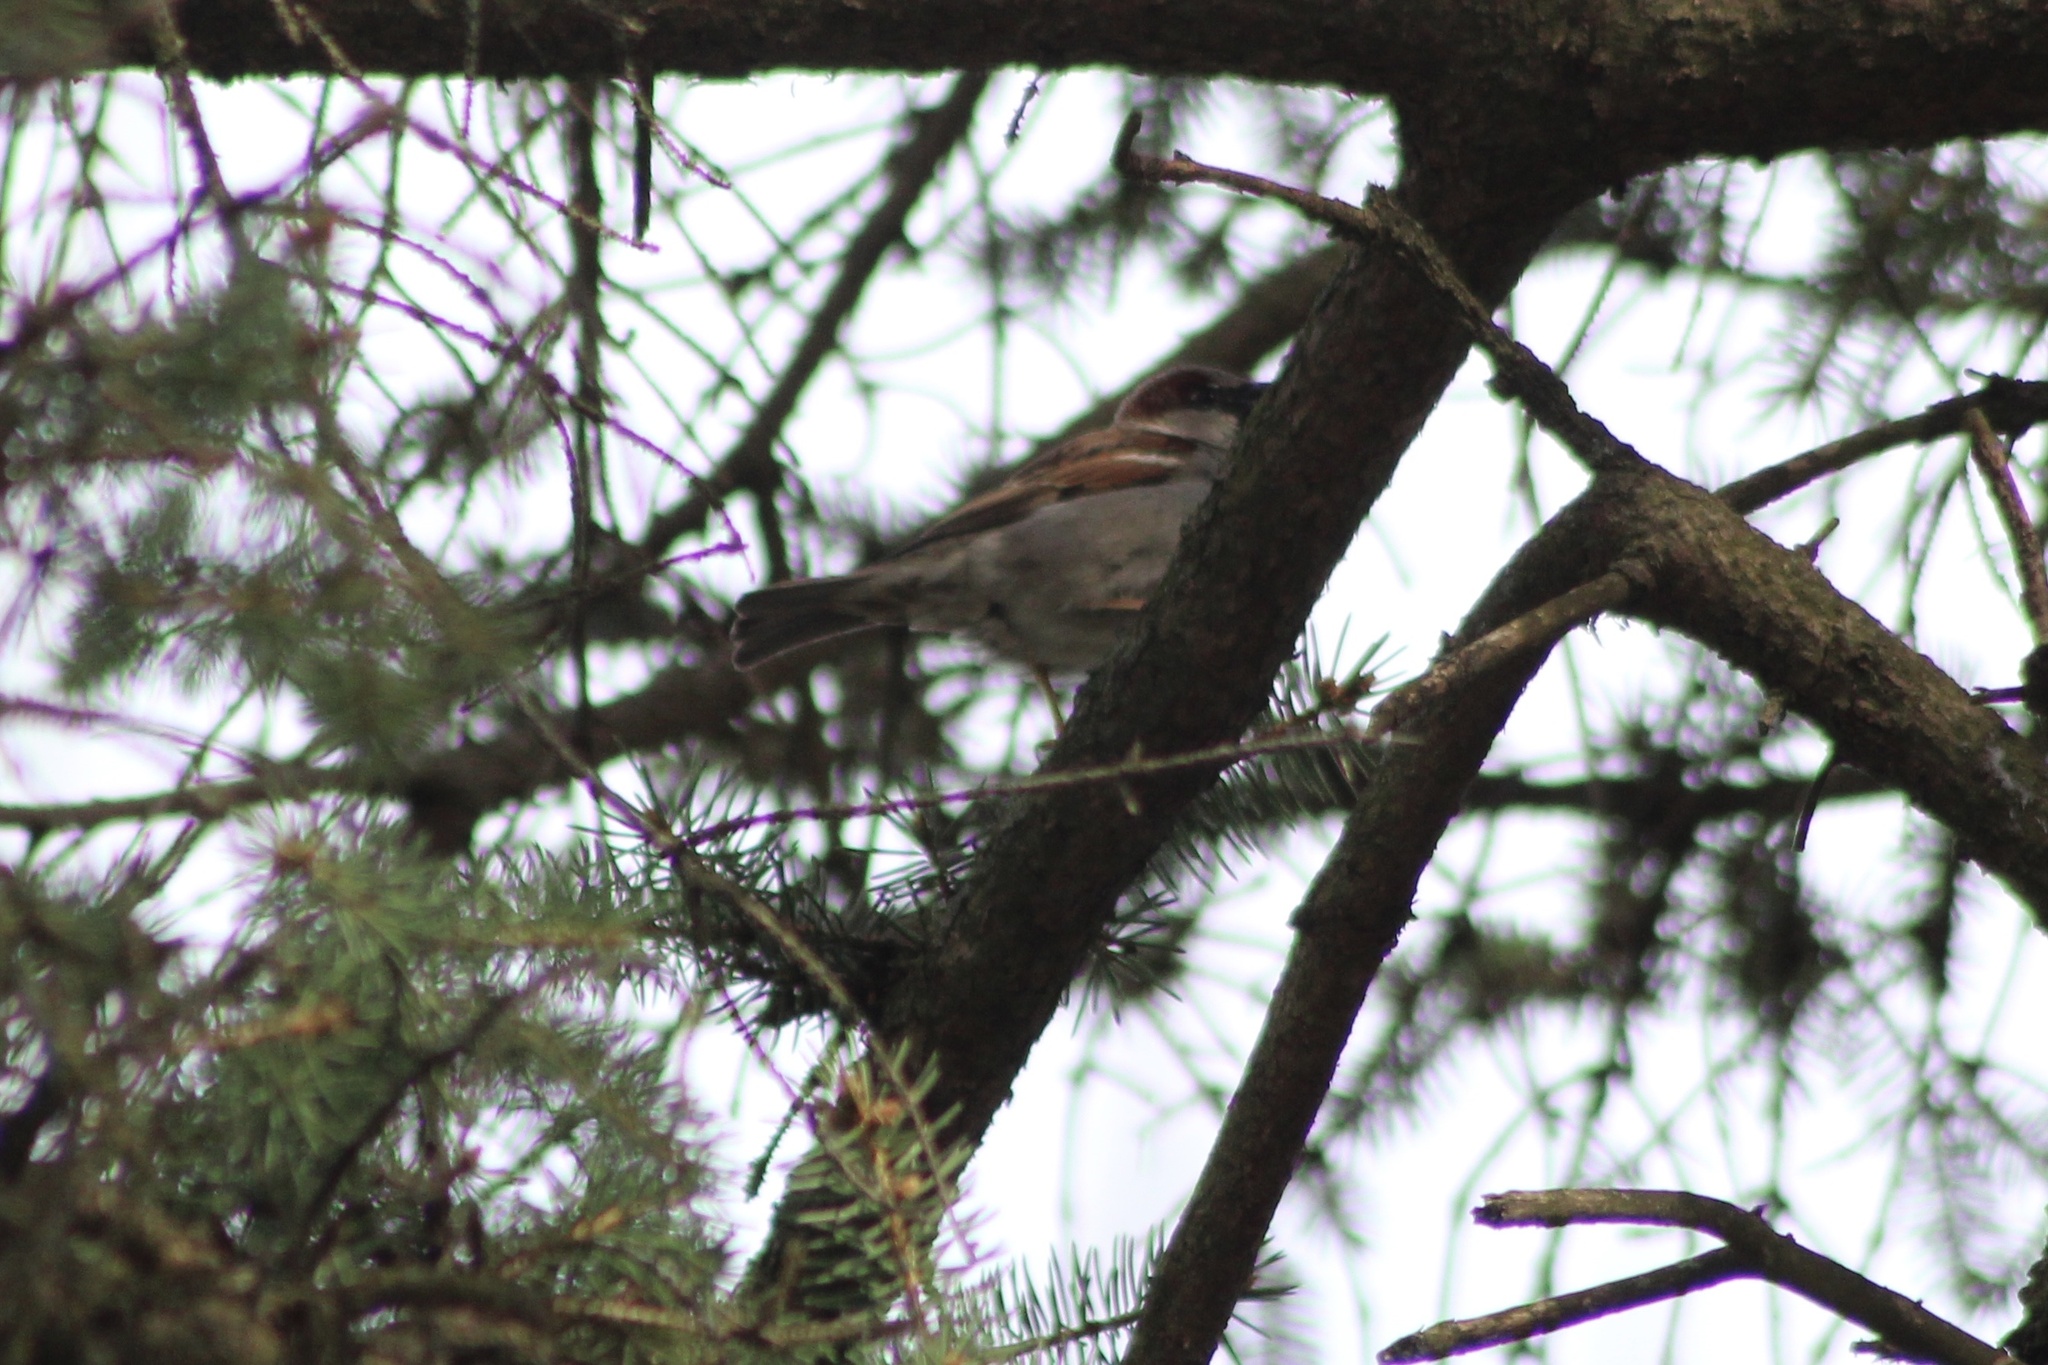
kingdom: Animalia
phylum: Chordata
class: Aves
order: Passeriformes
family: Passeridae
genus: Passer
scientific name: Passer domesticus
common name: House sparrow
